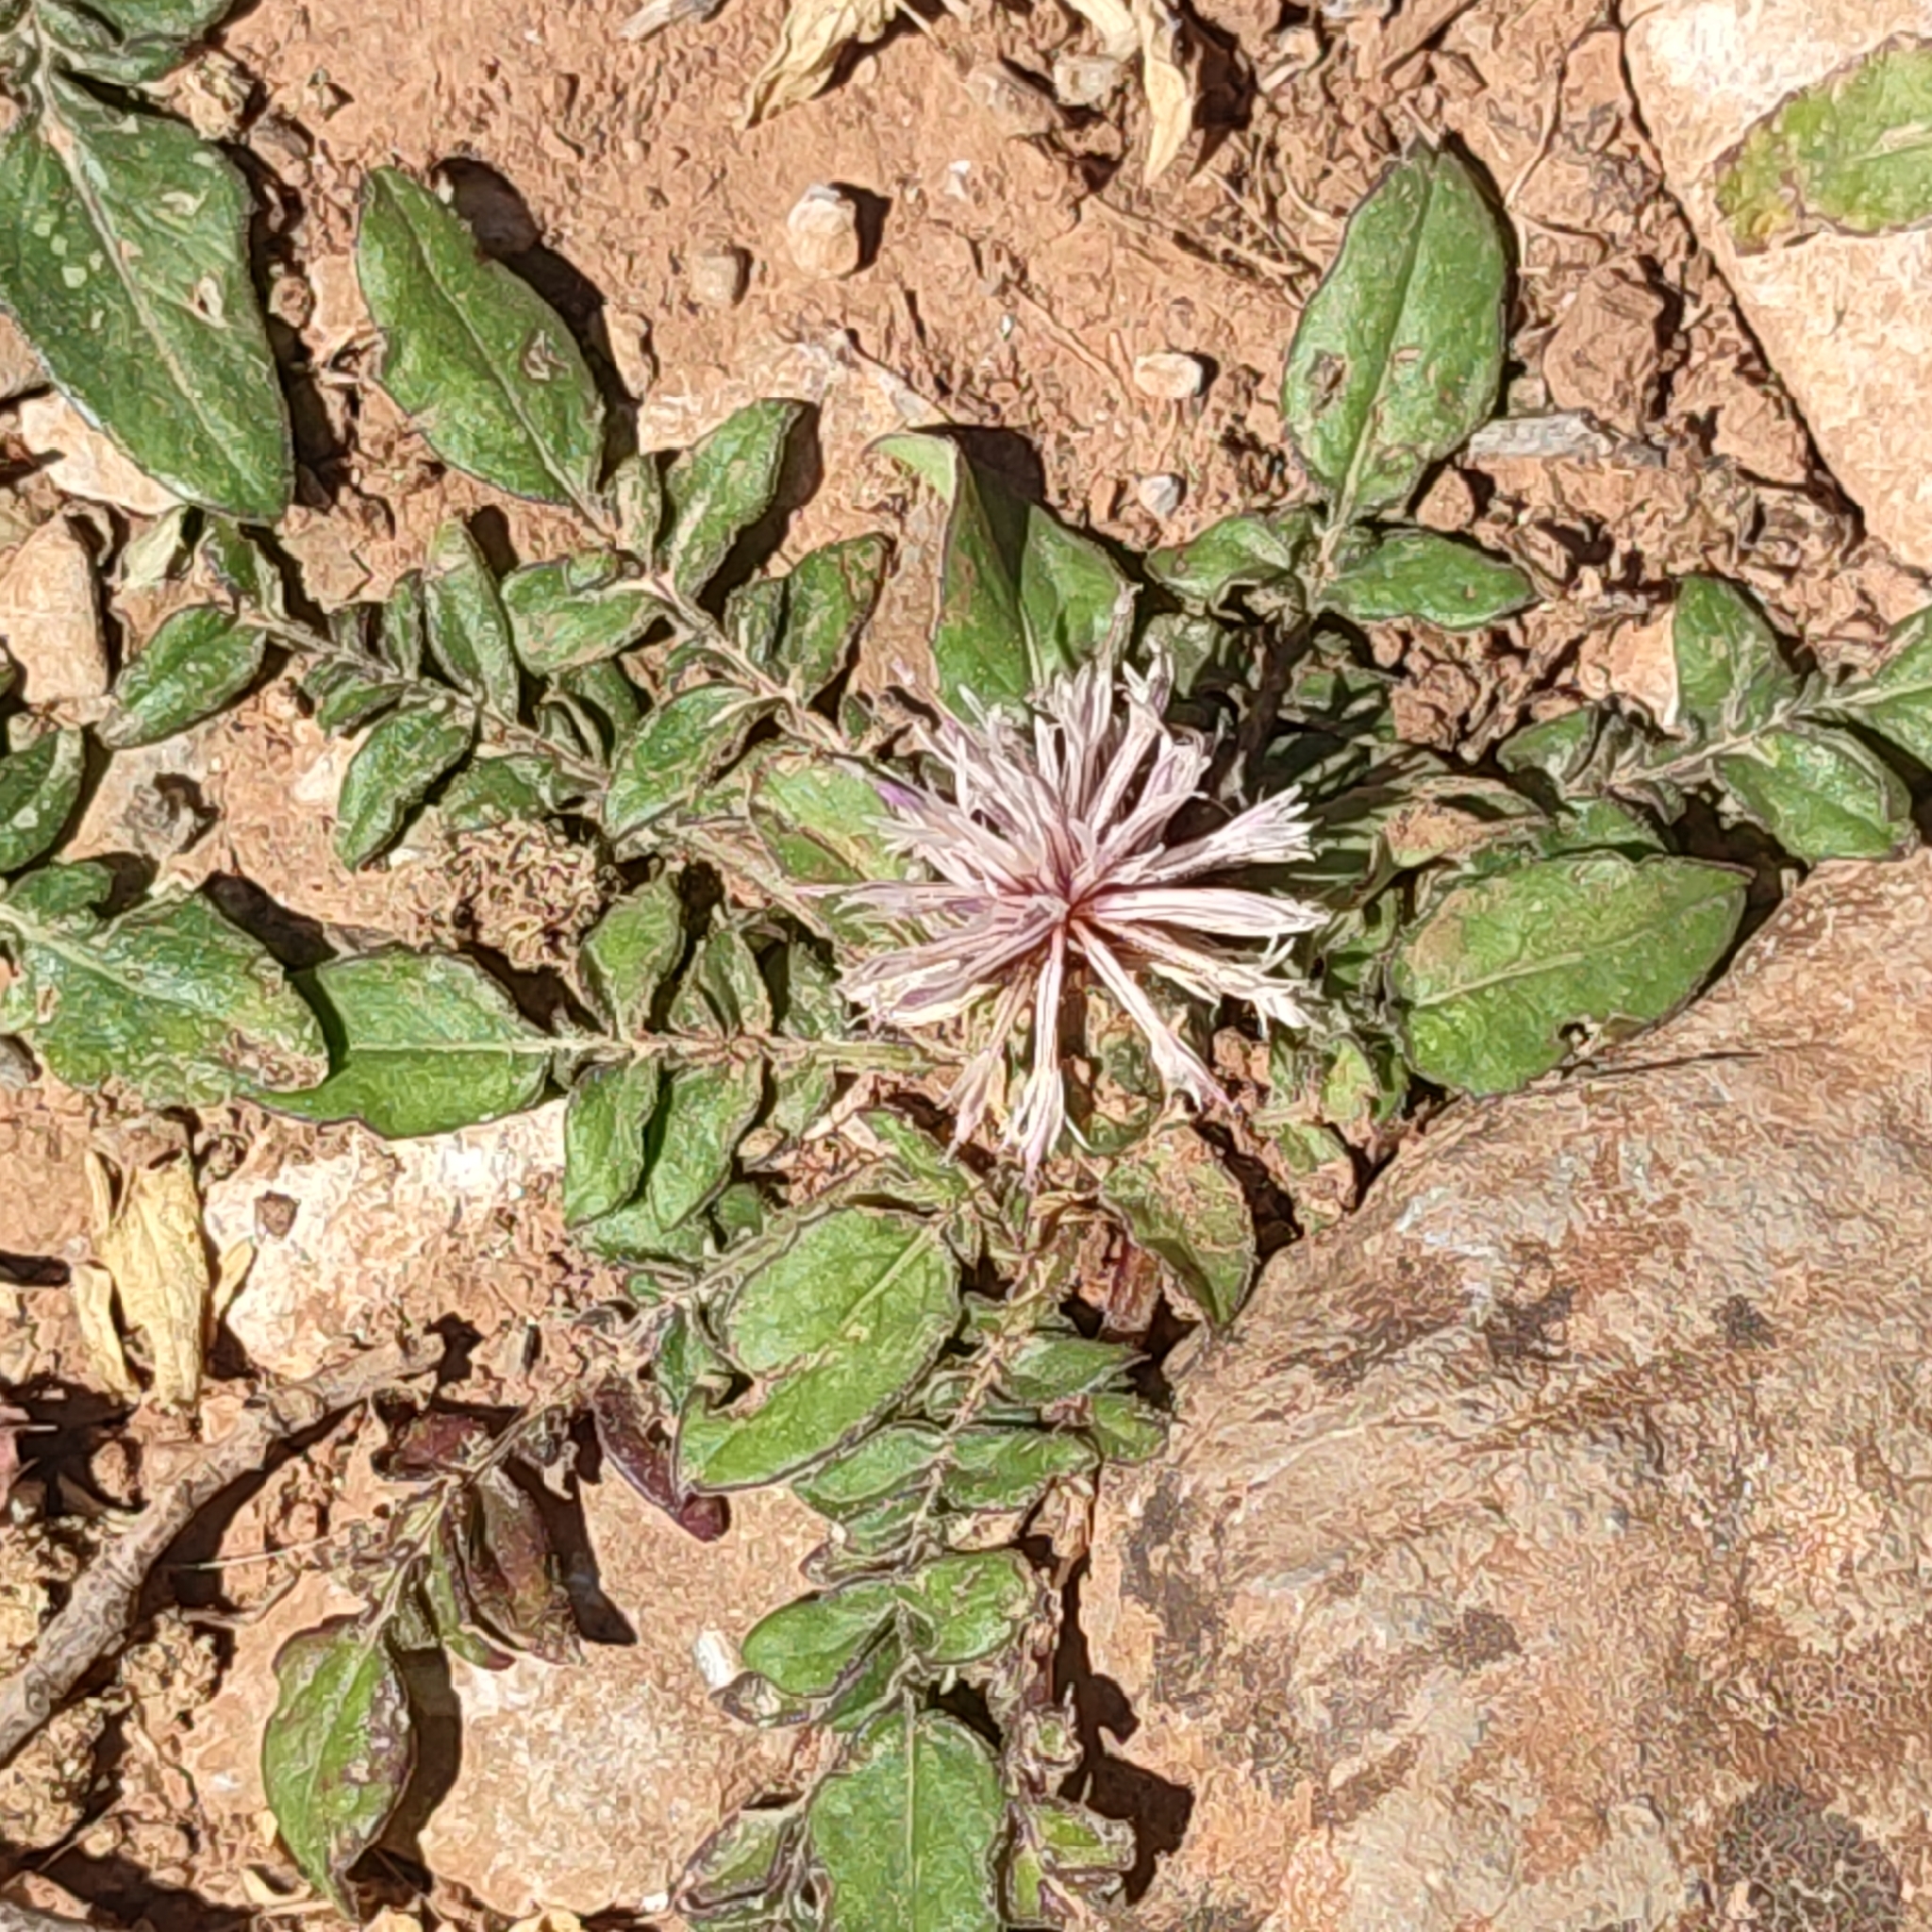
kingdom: Plantae
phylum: Tracheophyta
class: Magnoliopsida
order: Asterales
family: Asteraceae
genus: Centaurea
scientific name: Centaurea raphanina
